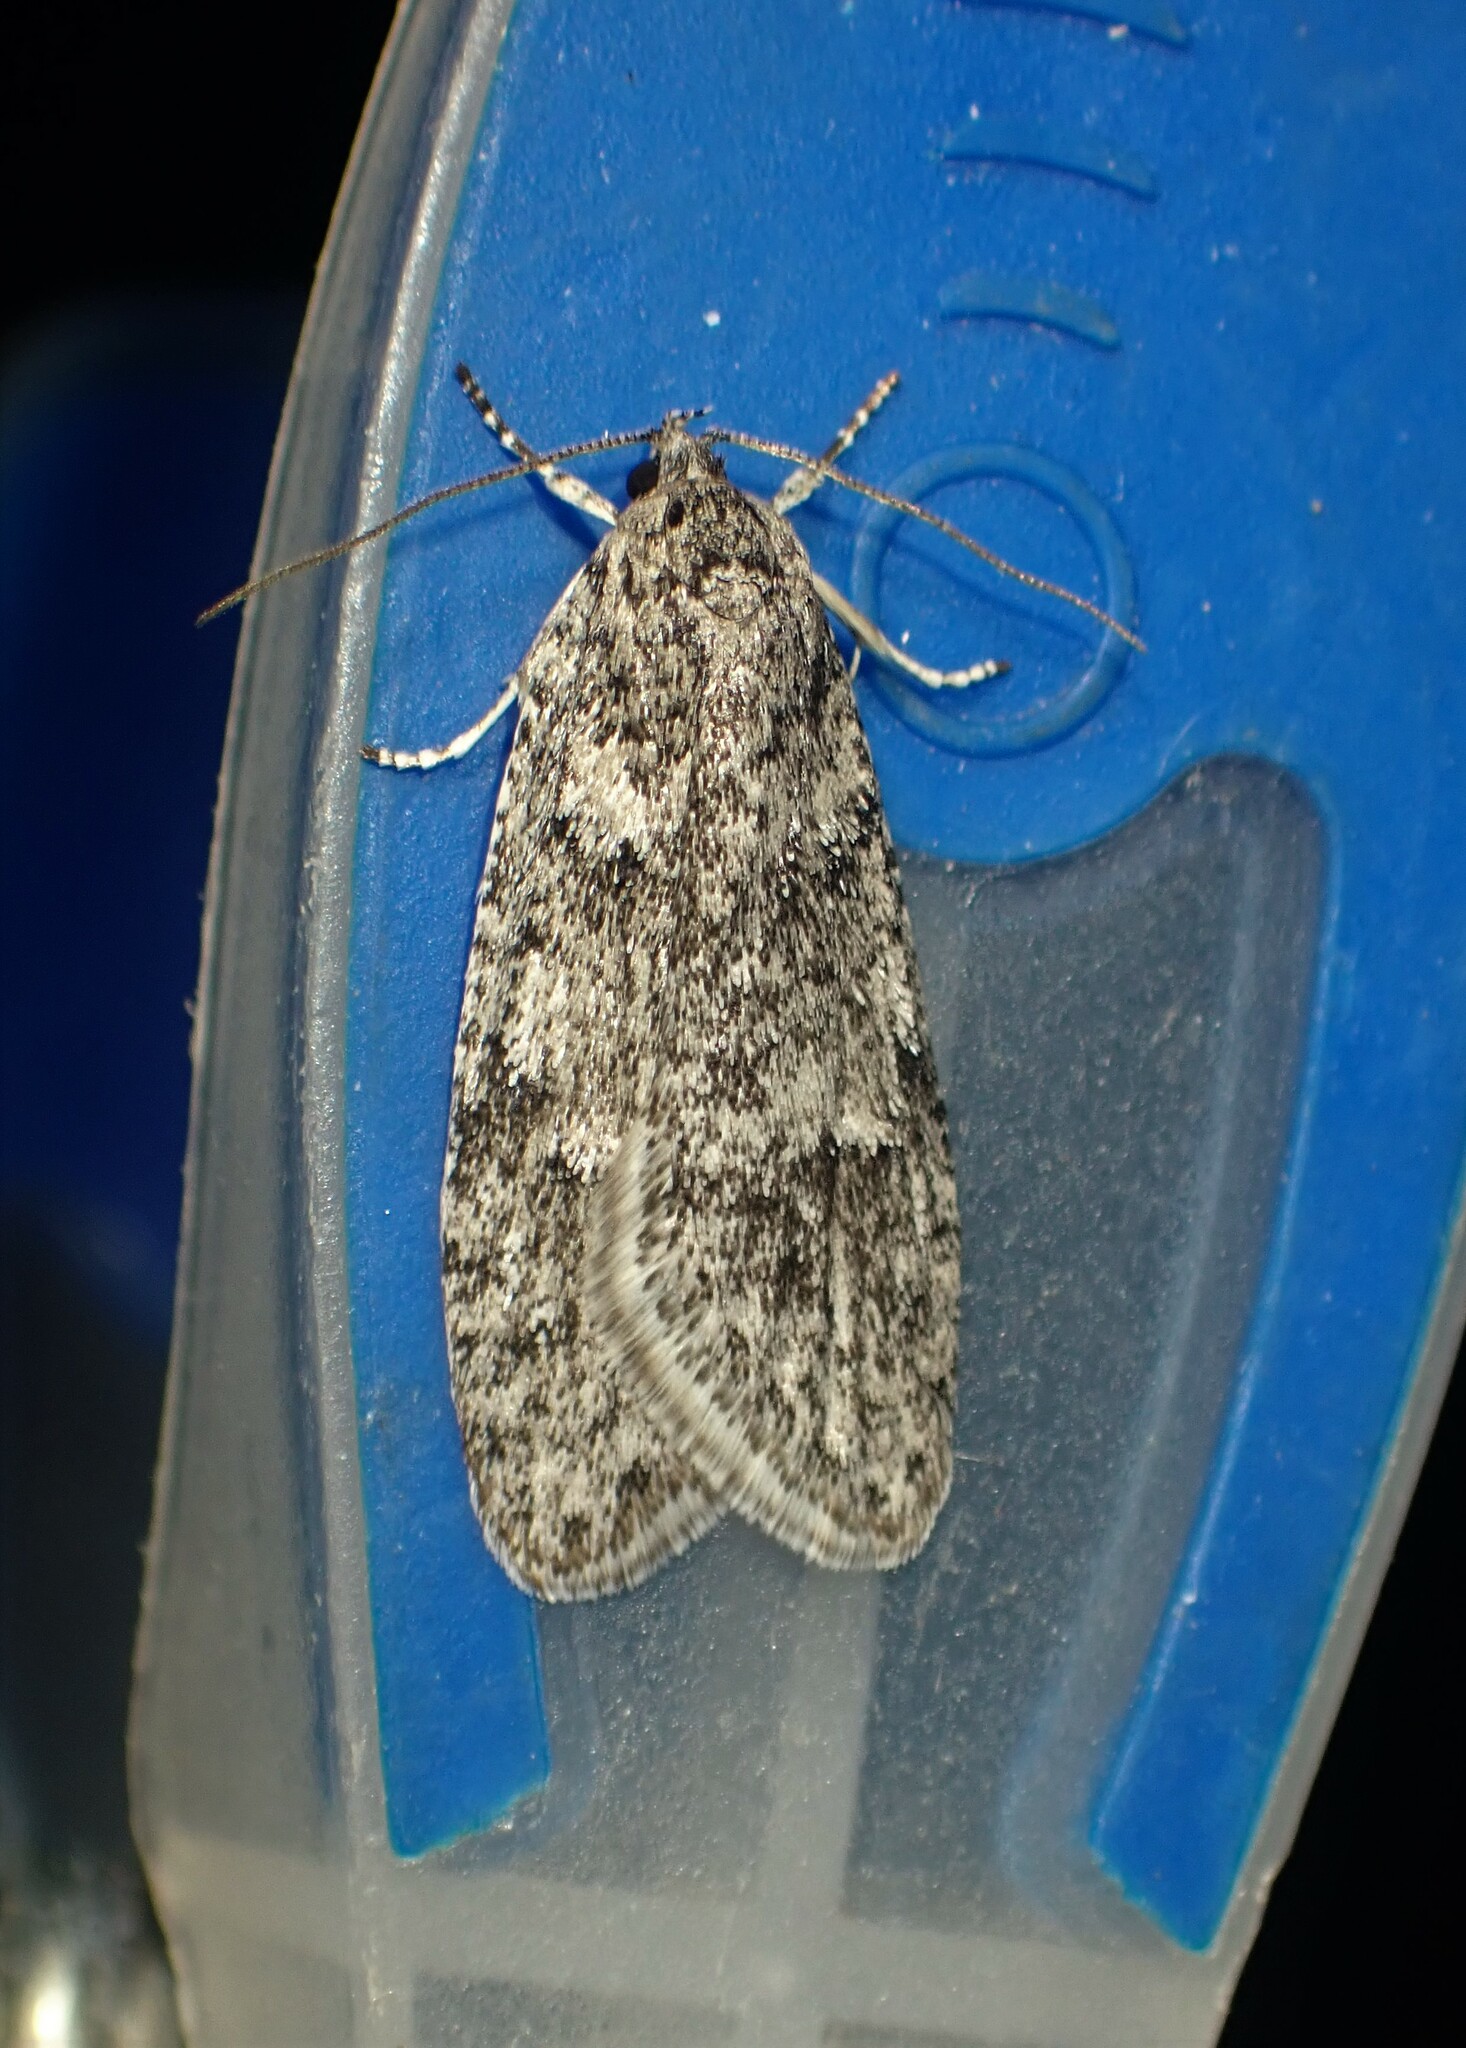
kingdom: Animalia
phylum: Arthropoda
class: Insecta
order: Lepidoptera
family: Depressariidae
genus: Semioscopis
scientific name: Semioscopis inornata
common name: Poplar micromoth
